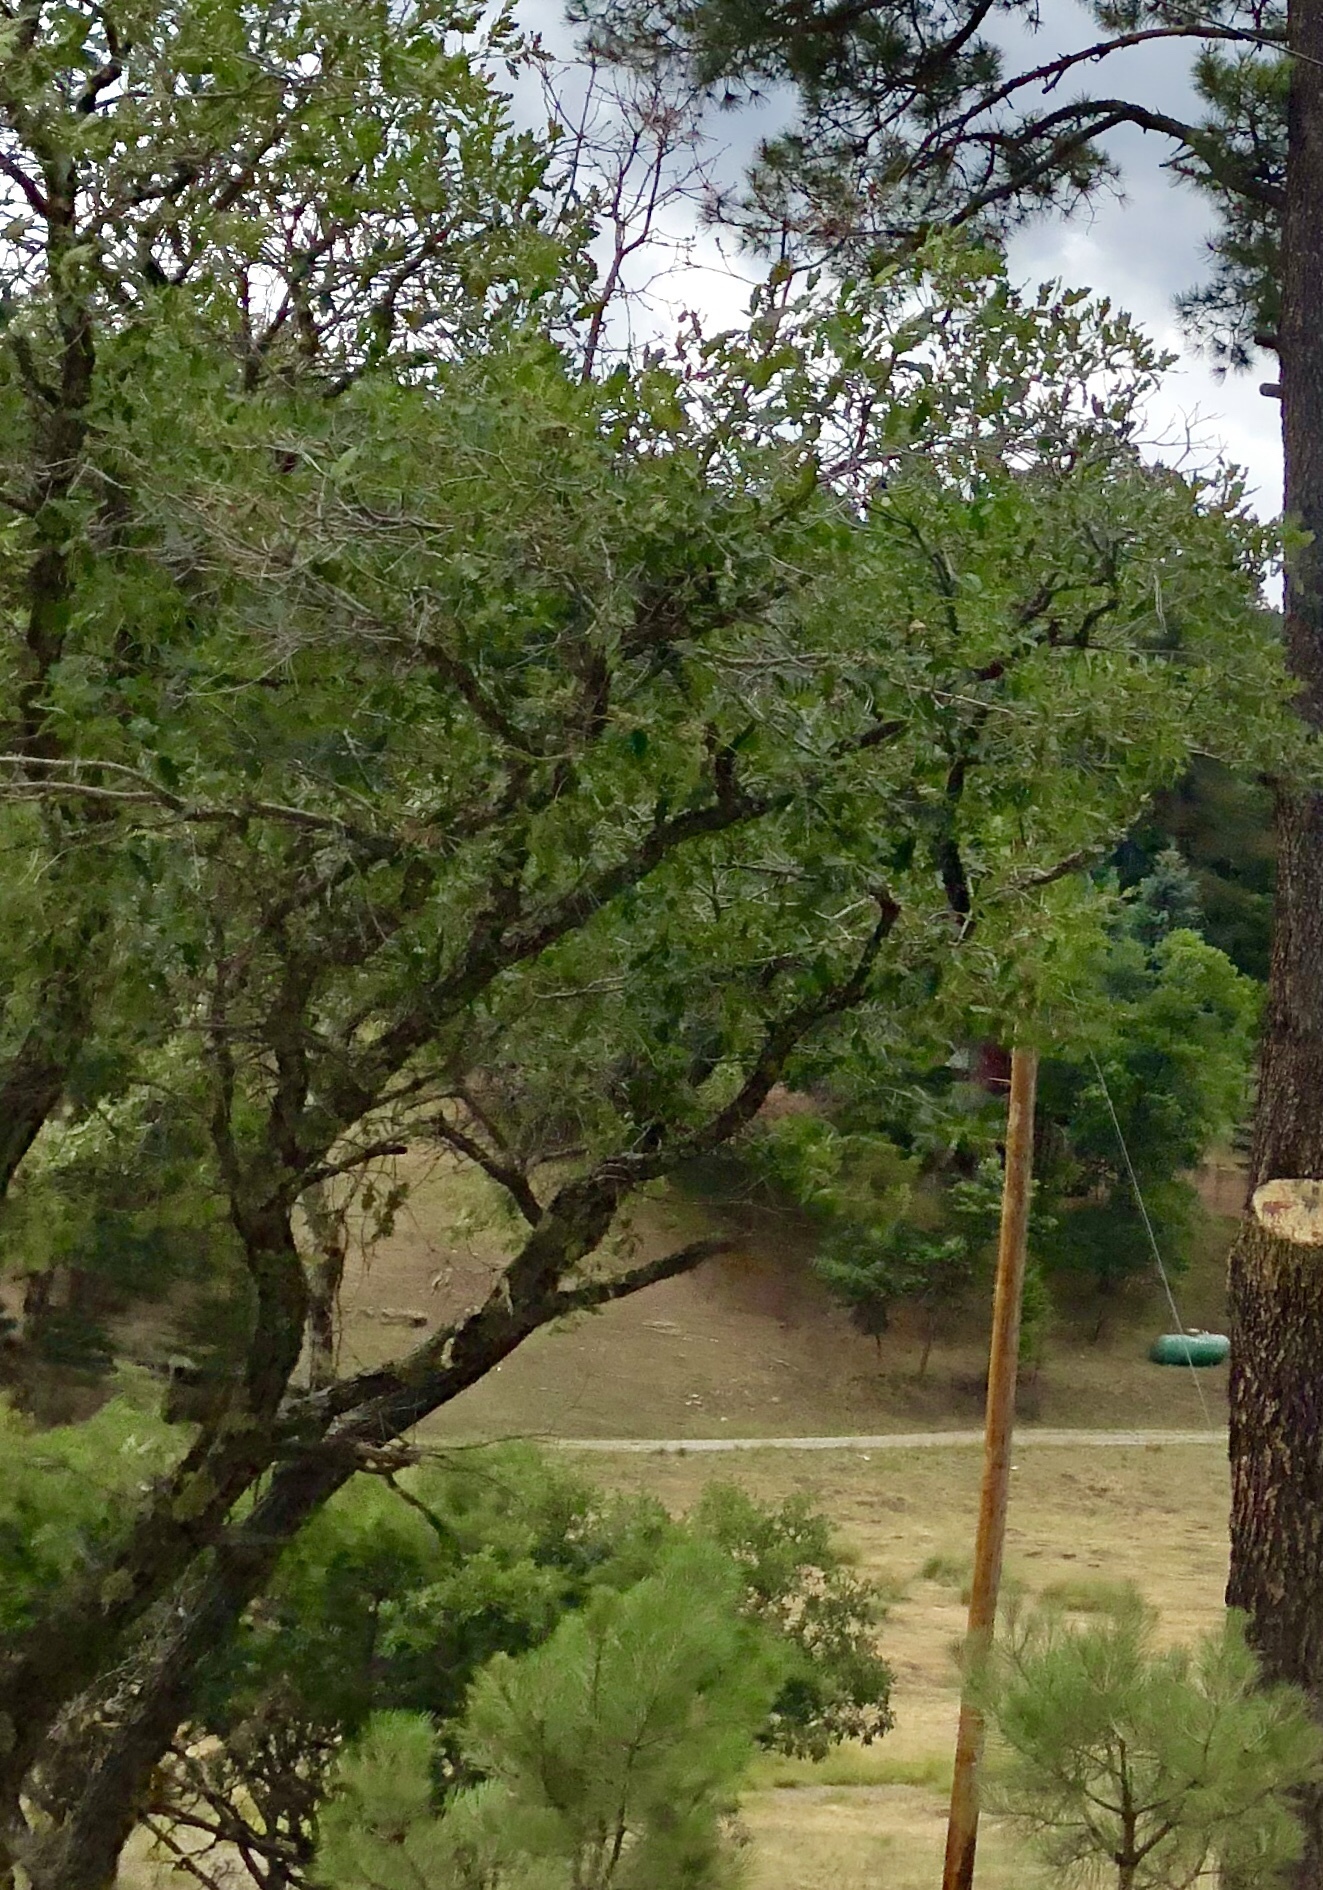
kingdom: Plantae
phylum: Tracheophyta
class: Magnoliopsida
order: Fagales
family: Fagaceae
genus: Quercus
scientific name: Quercus gambelii
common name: Gambel oak
